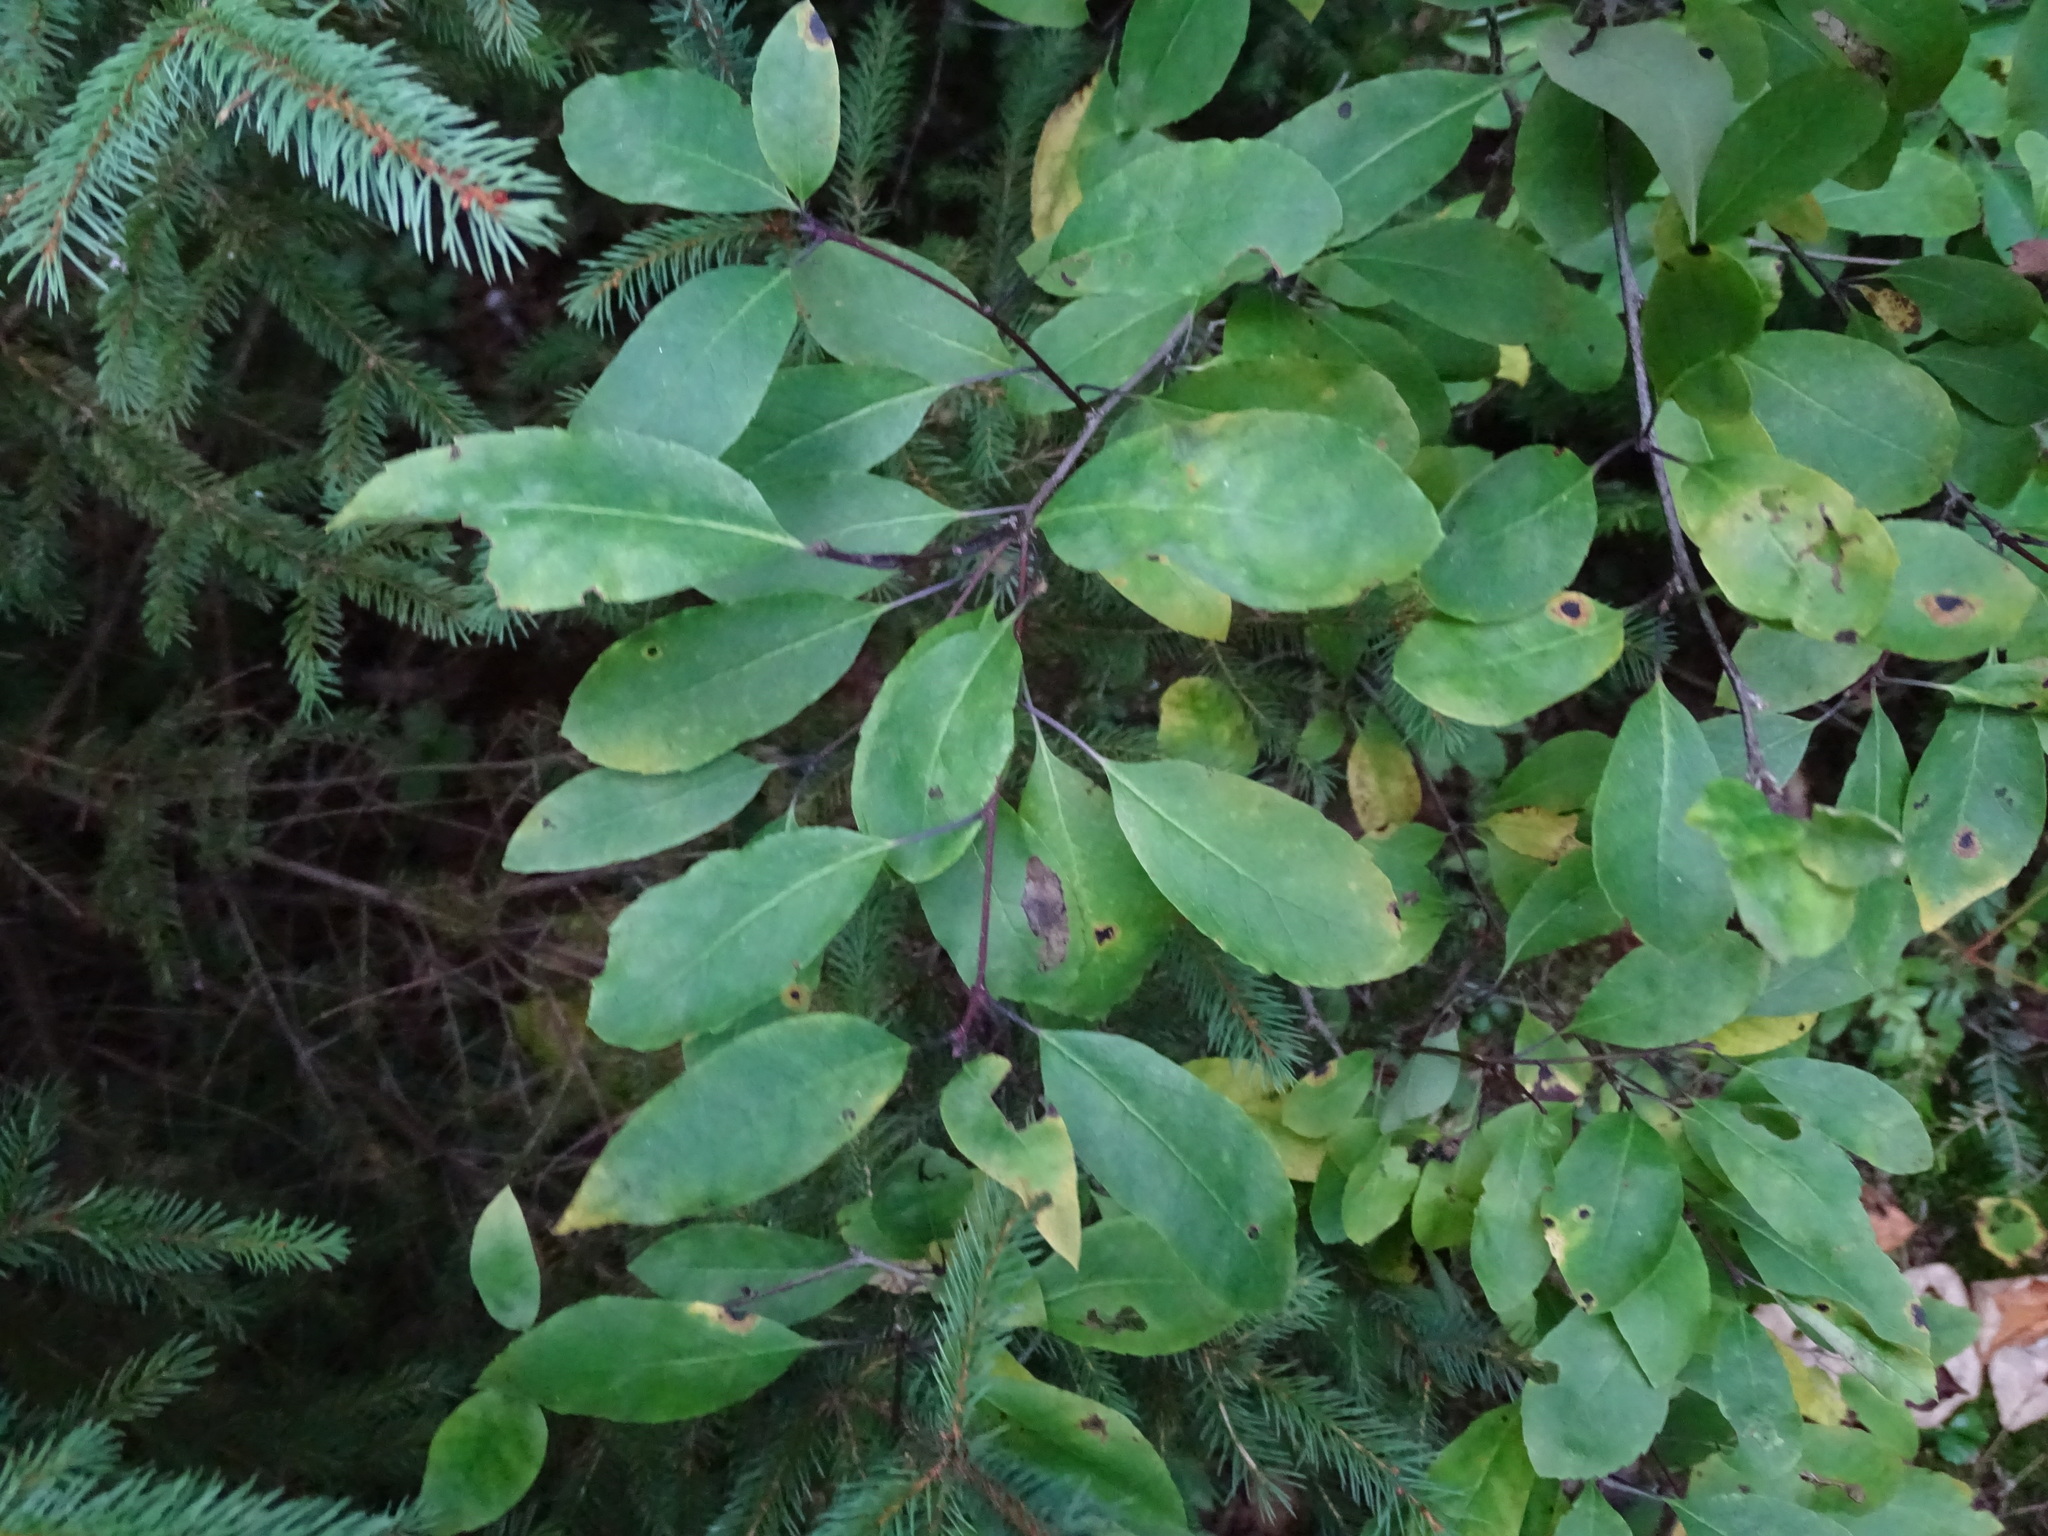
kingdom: Plantae
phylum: Tracheophyta
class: Magnoliopsida
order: Aquifoliales
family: Aquifoliaceae
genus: Ilex
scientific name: Ilex mucronata
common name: Catberry
